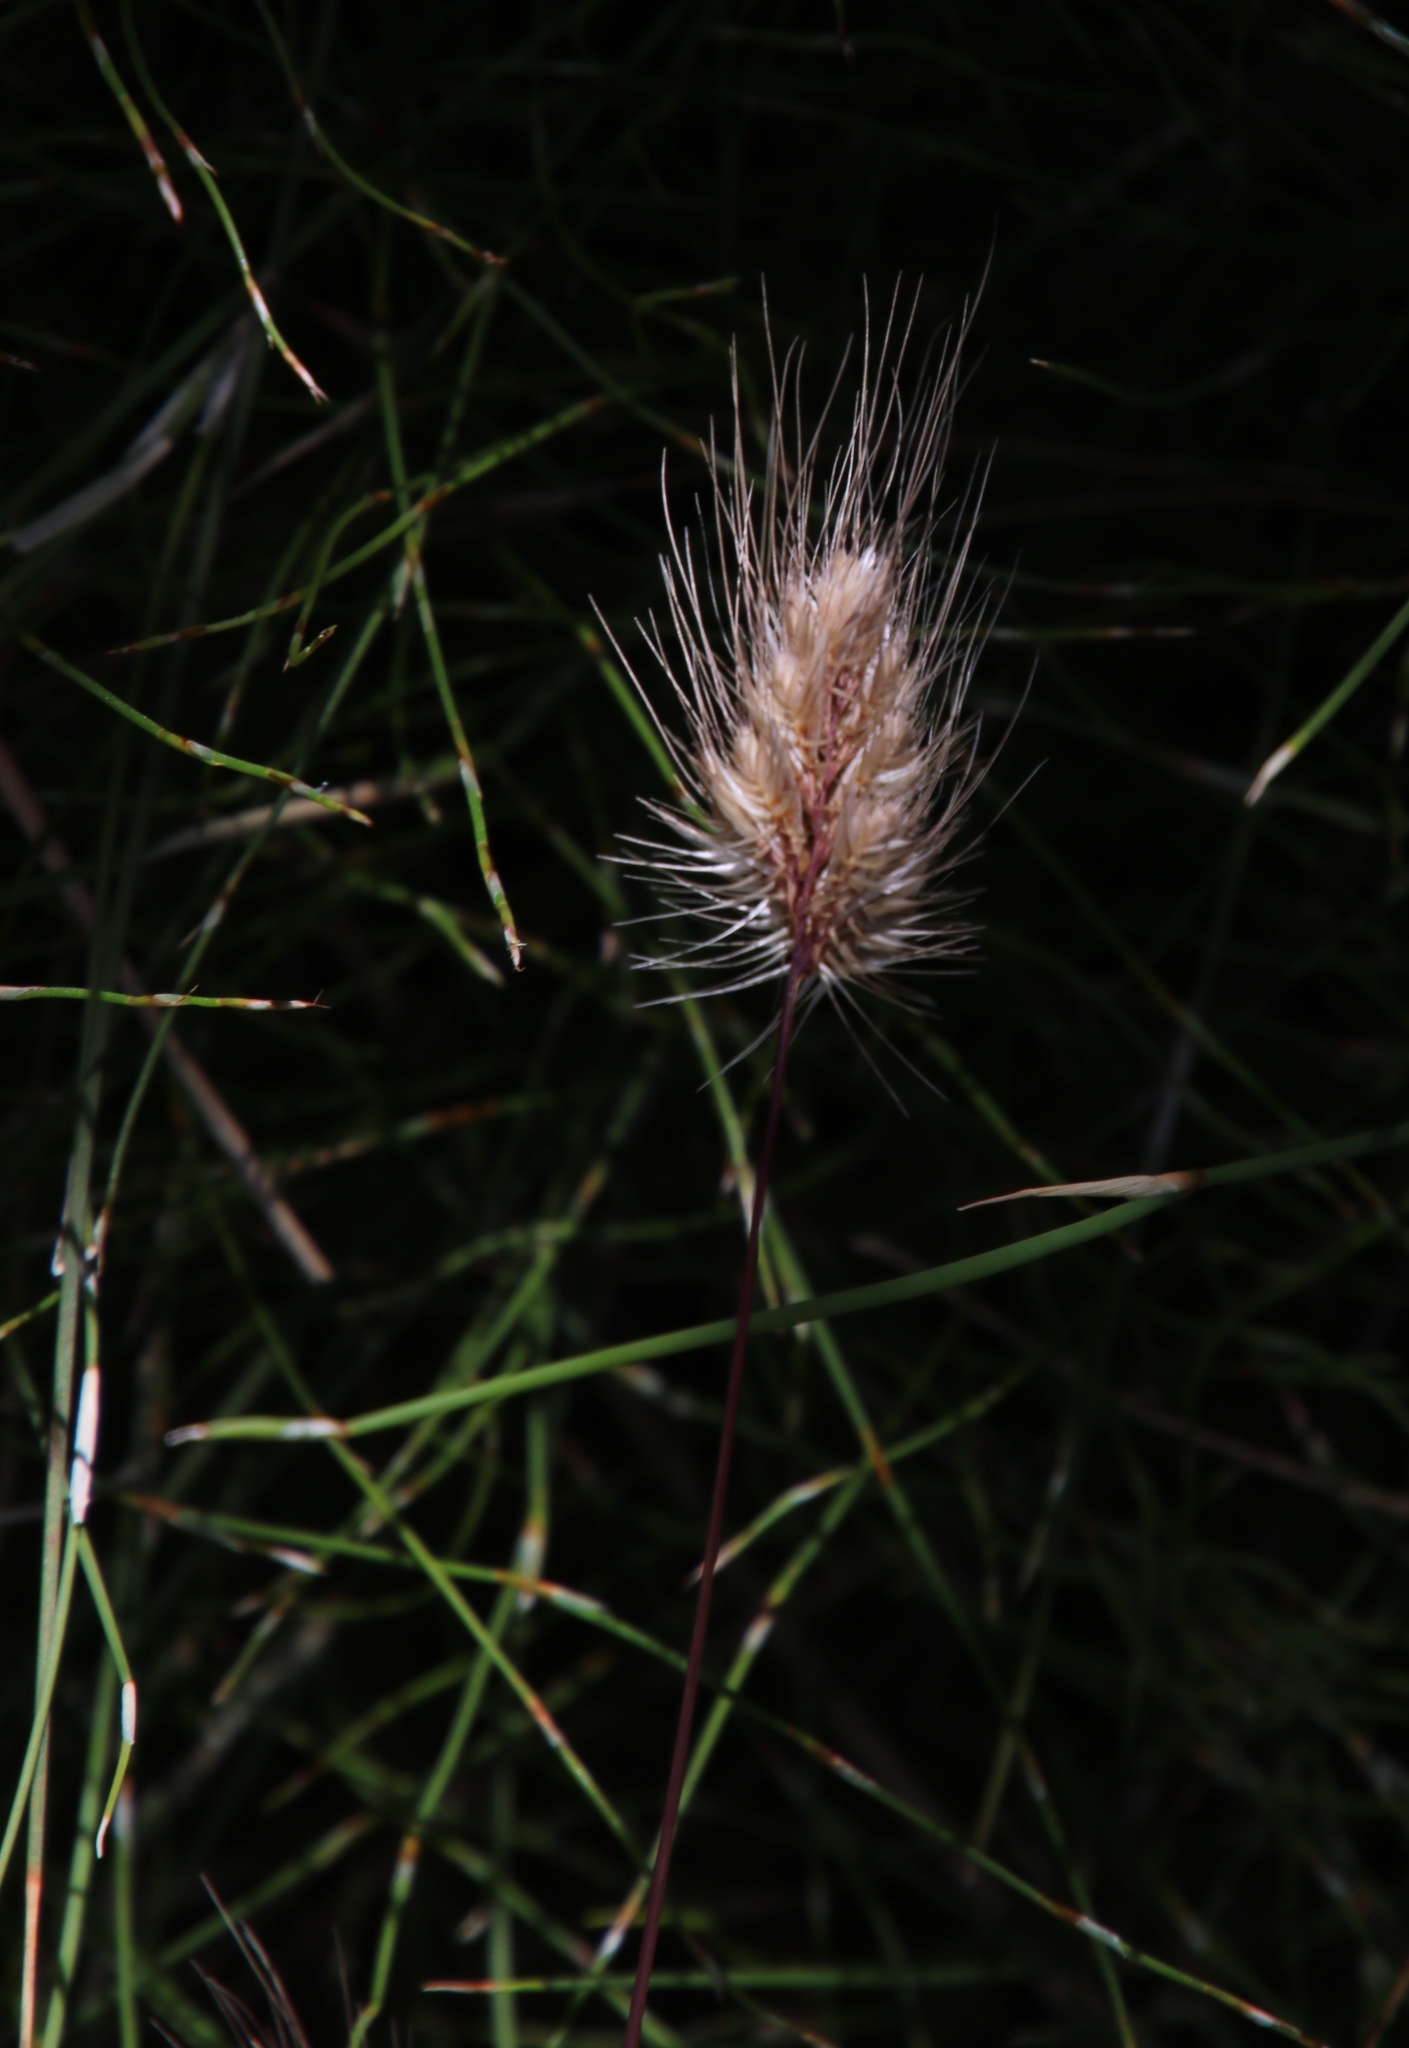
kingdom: Plantae
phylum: Tracheophyta
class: Liliopsida
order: Poales
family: Poaceae
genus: Cynosurus
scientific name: Cynosurus echinatus
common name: Rough dog's-tail
